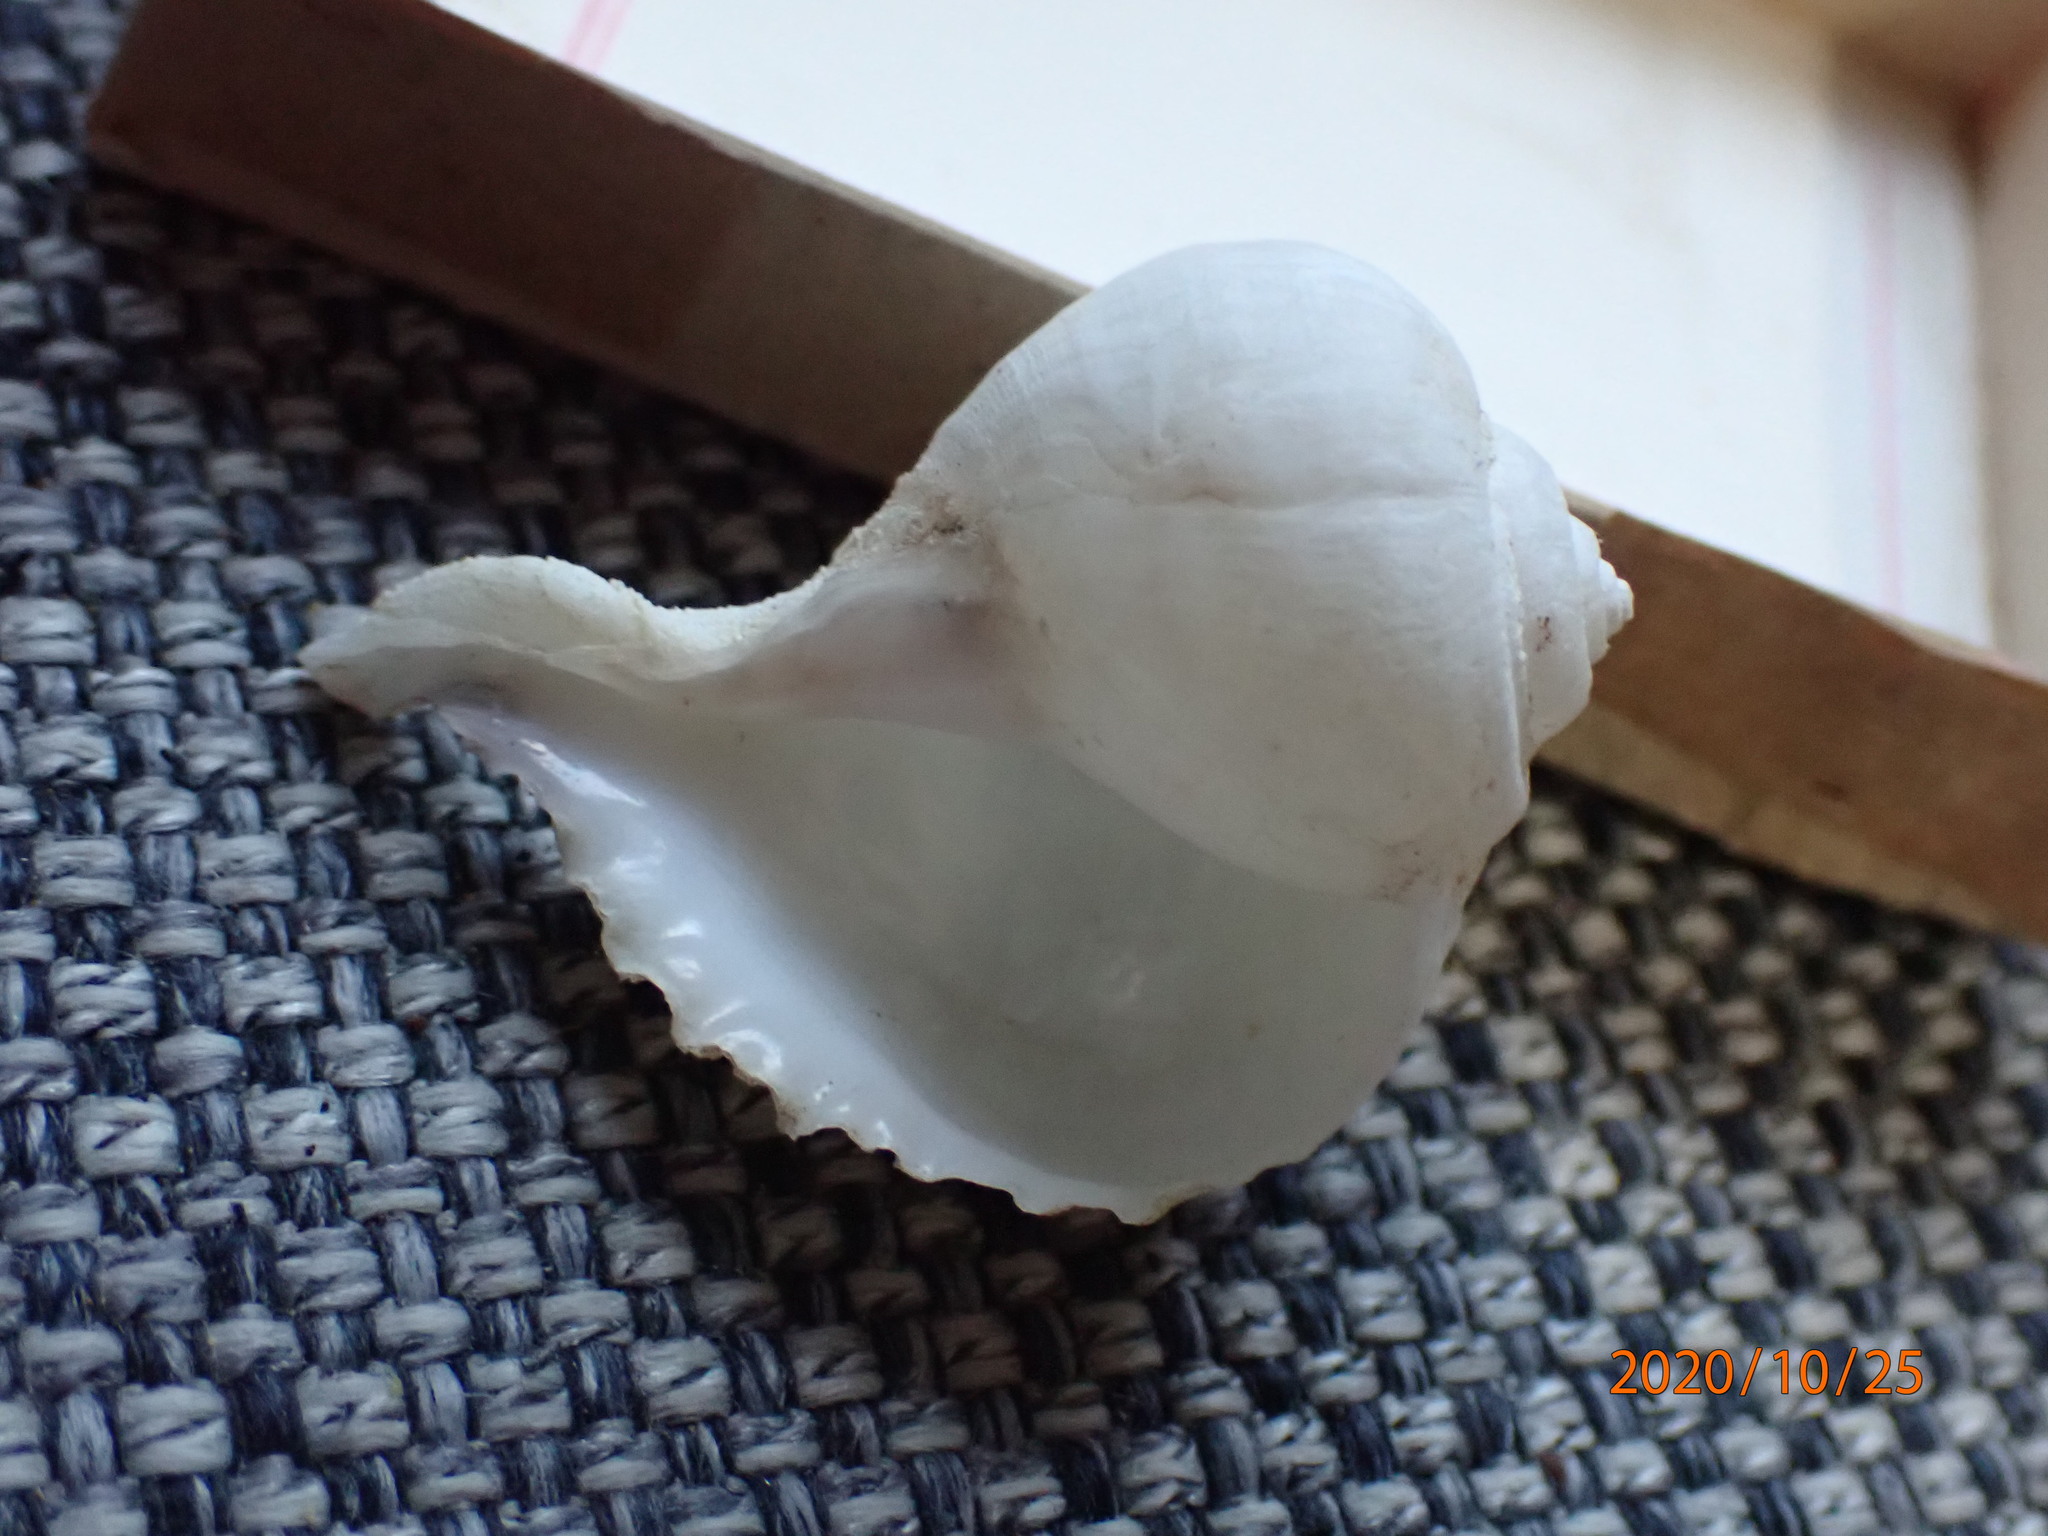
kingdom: Animalia
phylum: Mollusca
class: Gastropoda
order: Neogastropoda
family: Muricidae
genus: Rapa
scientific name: Rapa rapa
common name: Bubble turnip
